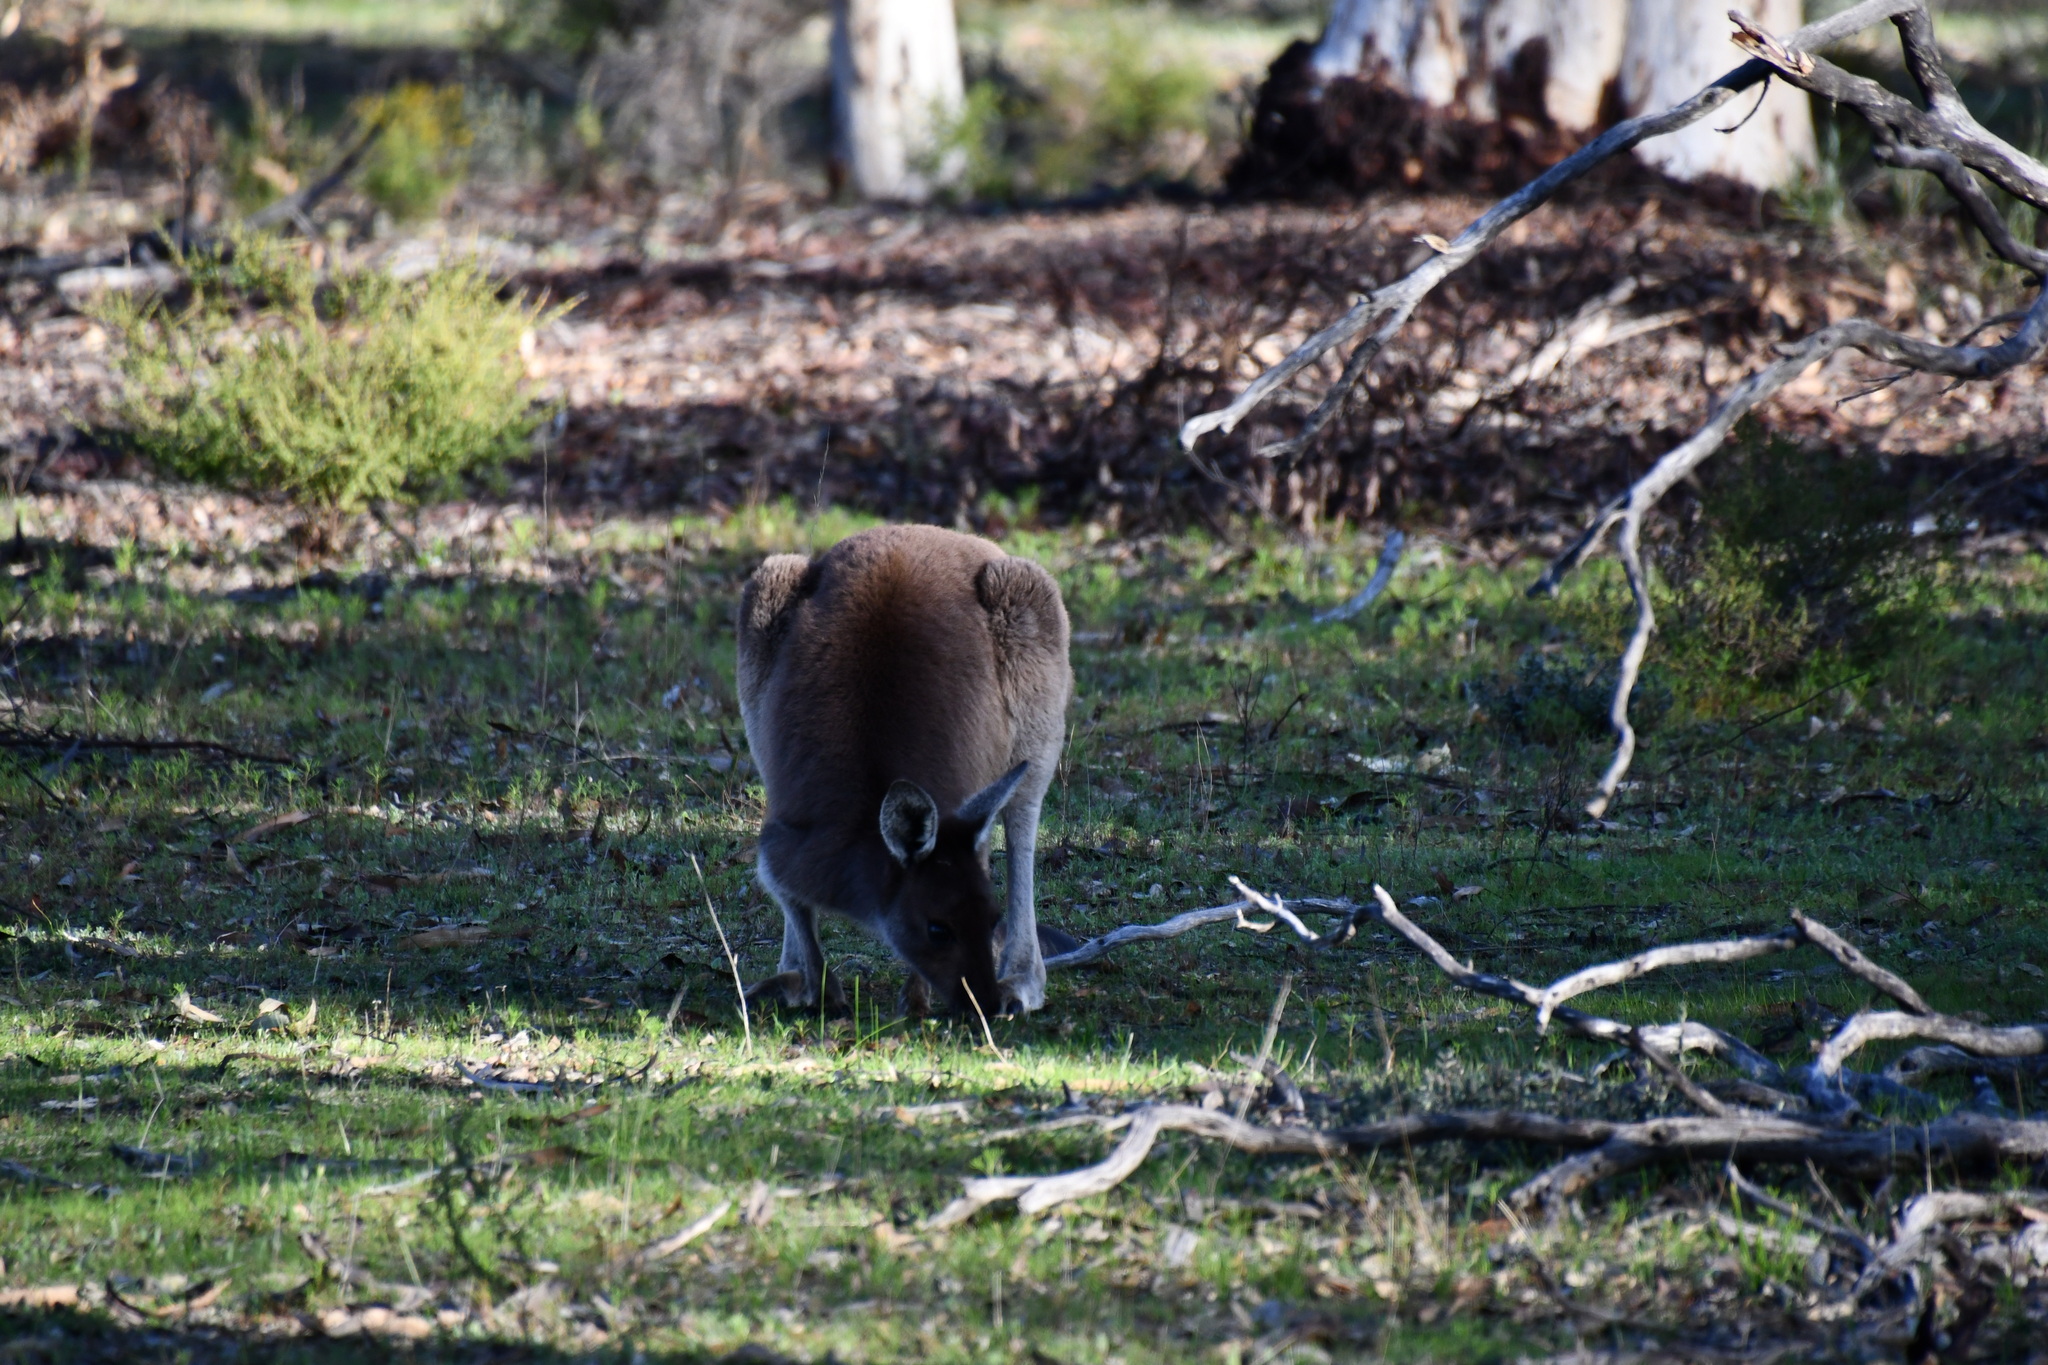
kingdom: Animalia
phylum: Chordata
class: Mammalia
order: Diprotodontia
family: Macropodidae
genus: Macropus
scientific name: Macropus fuliginosus
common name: Western grey kangaroo
